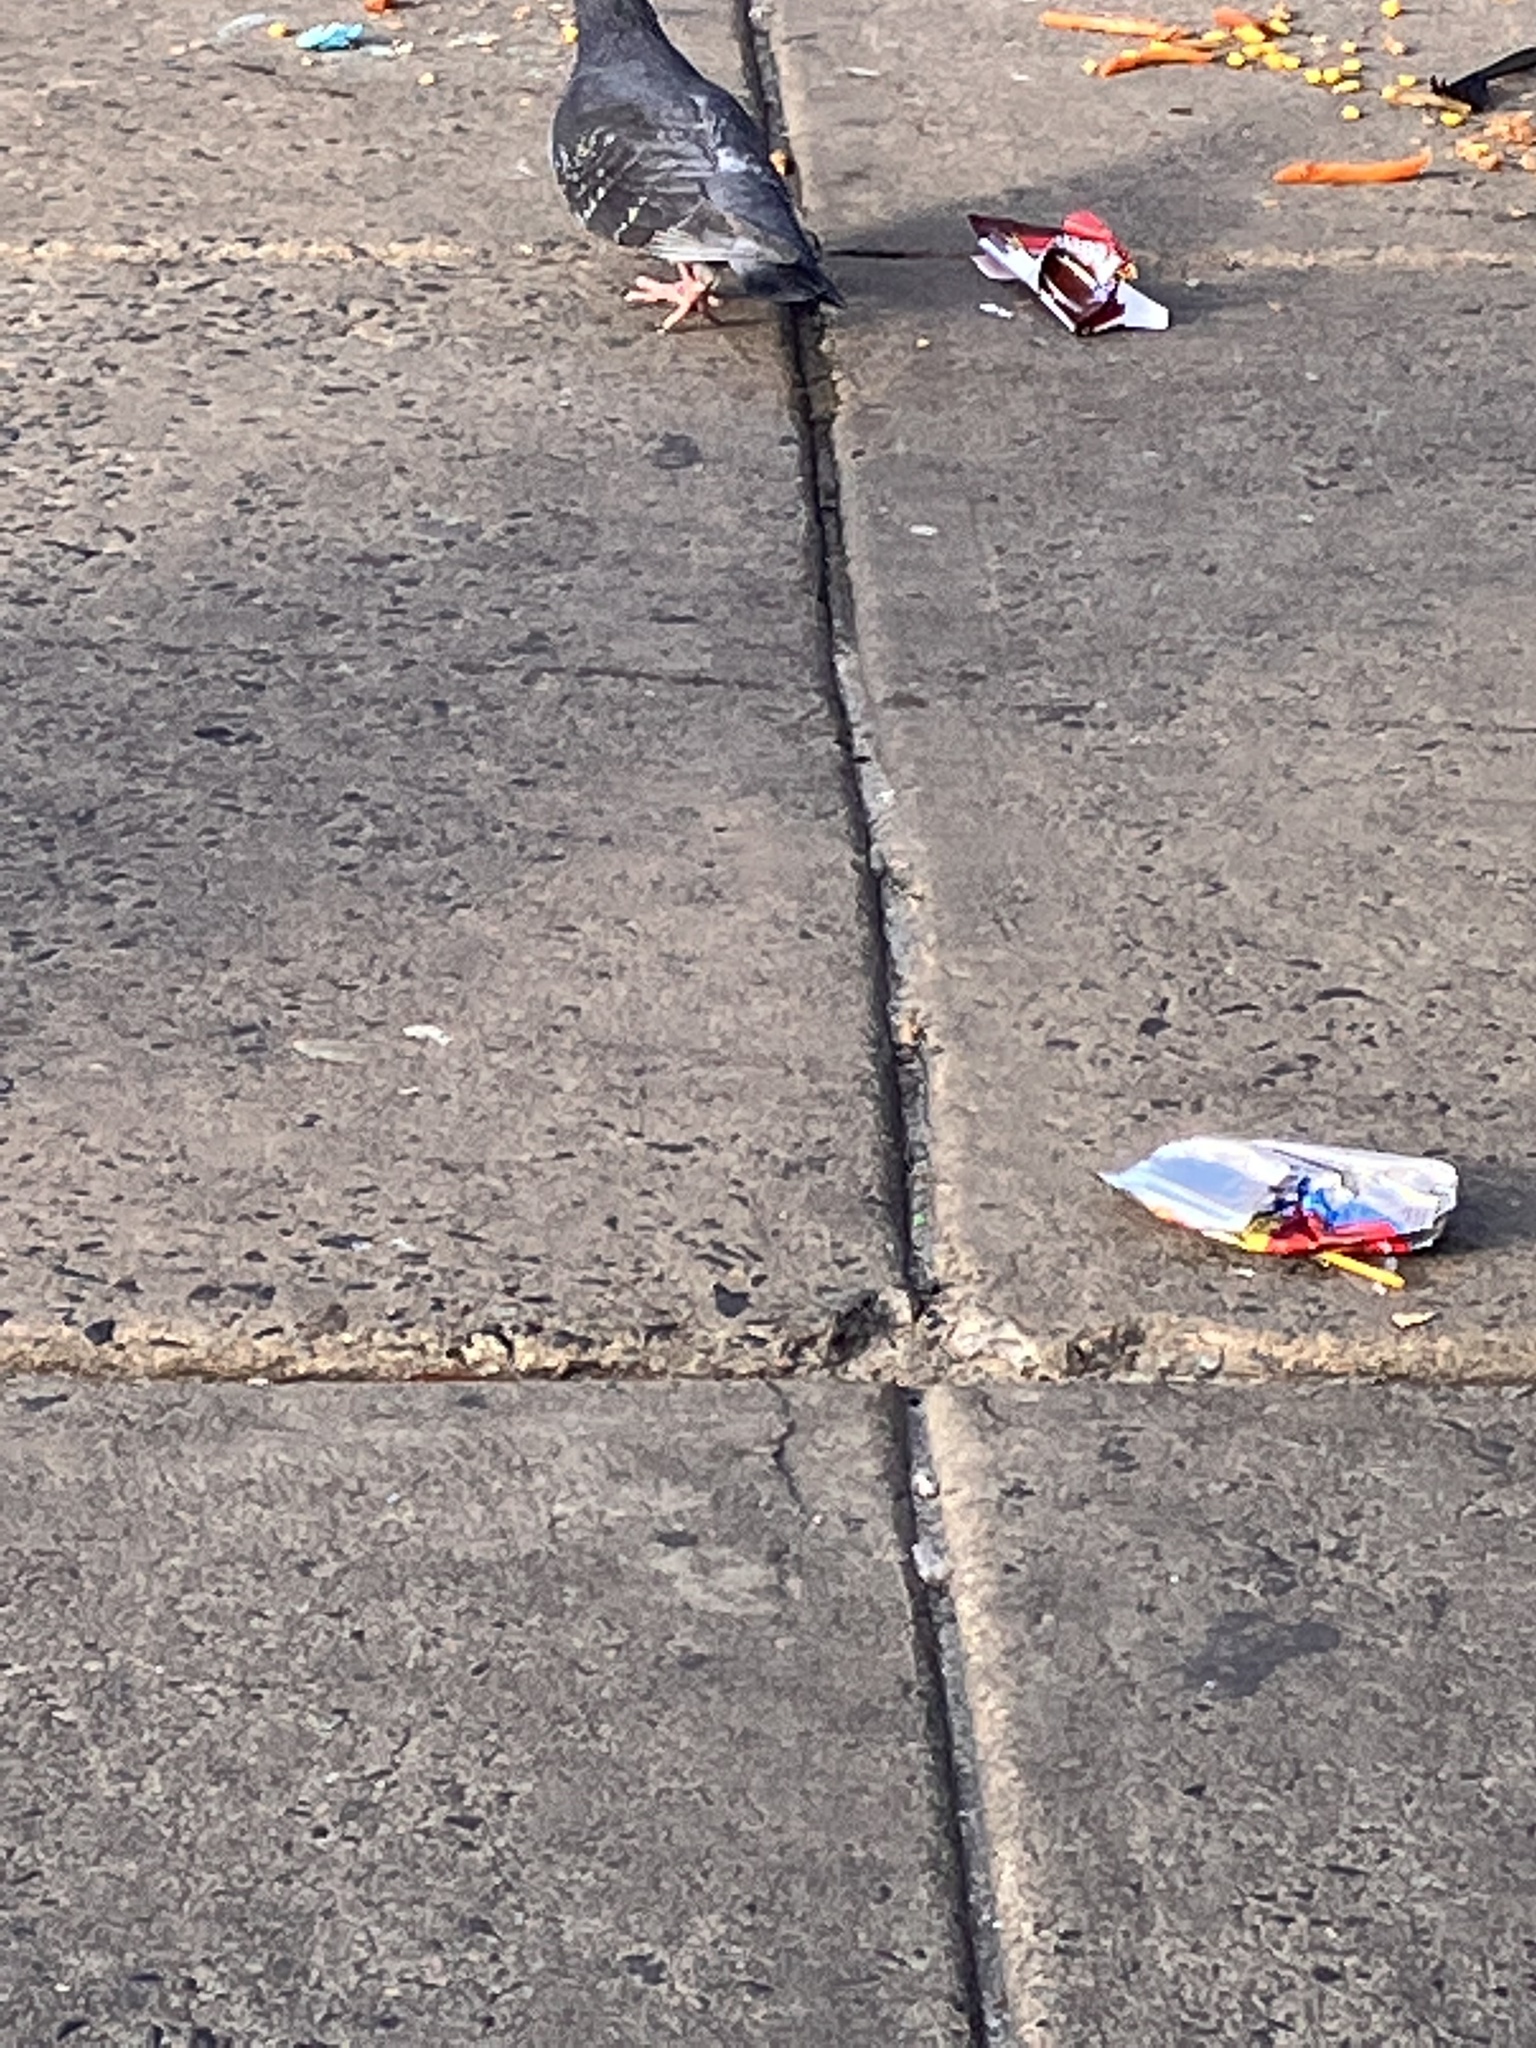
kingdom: Animalia
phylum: Chordata
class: Aves
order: Columbiformes
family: Columbidae
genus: Columba
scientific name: Columba livia
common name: Rock pigeon
